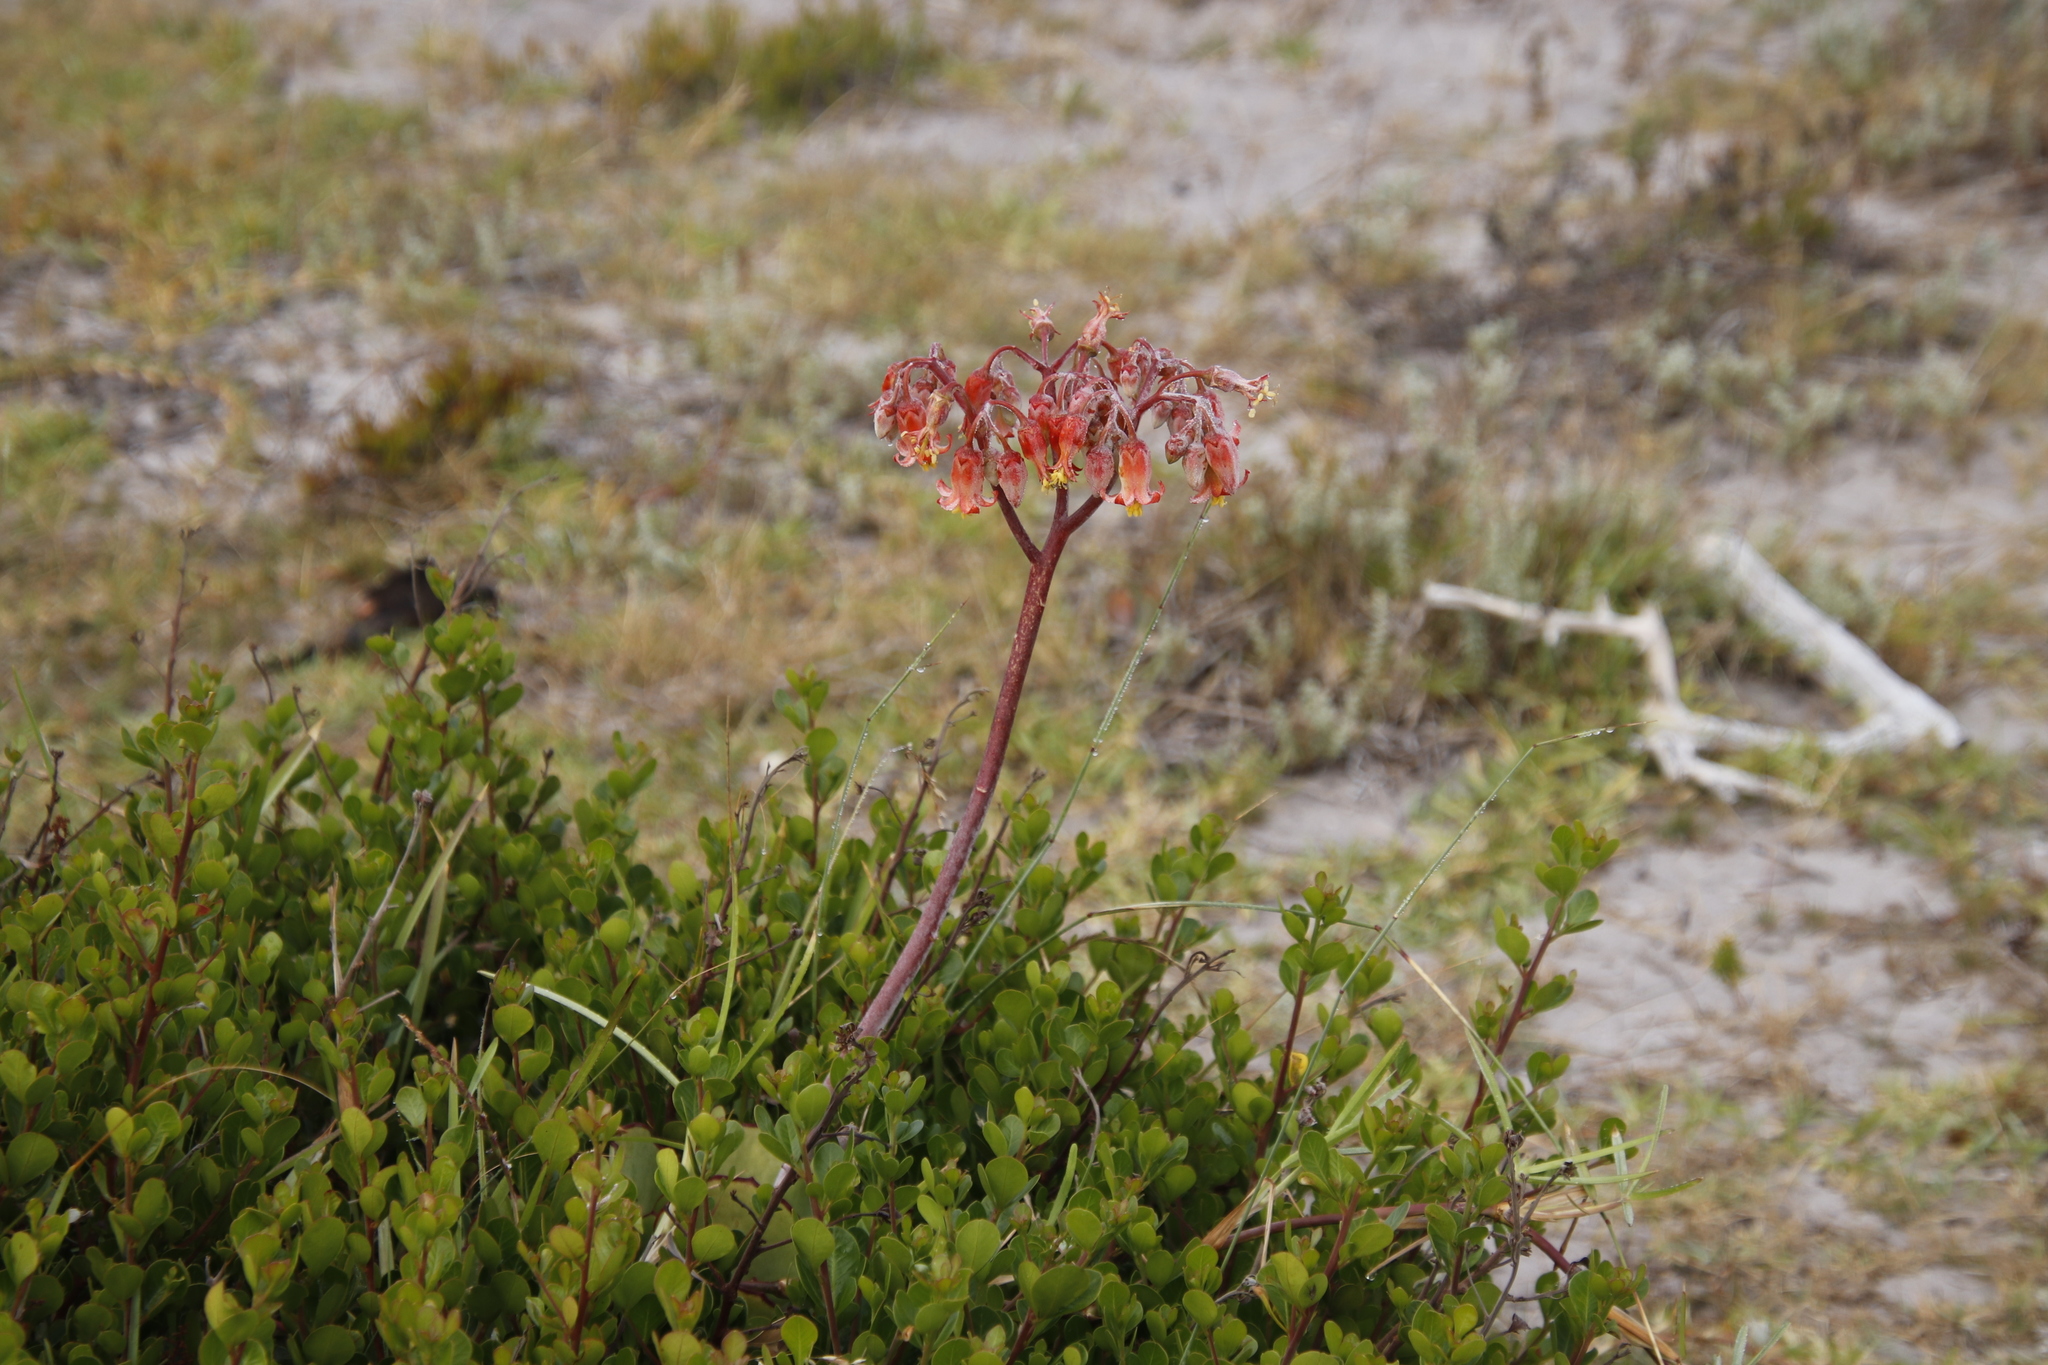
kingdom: Plantae
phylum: Tracheophyta
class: Magnoliopsida
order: Saxifragales
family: Crassulaceae
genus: Cotyledon
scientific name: Cotyledon orbiculata
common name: Pig's ear
